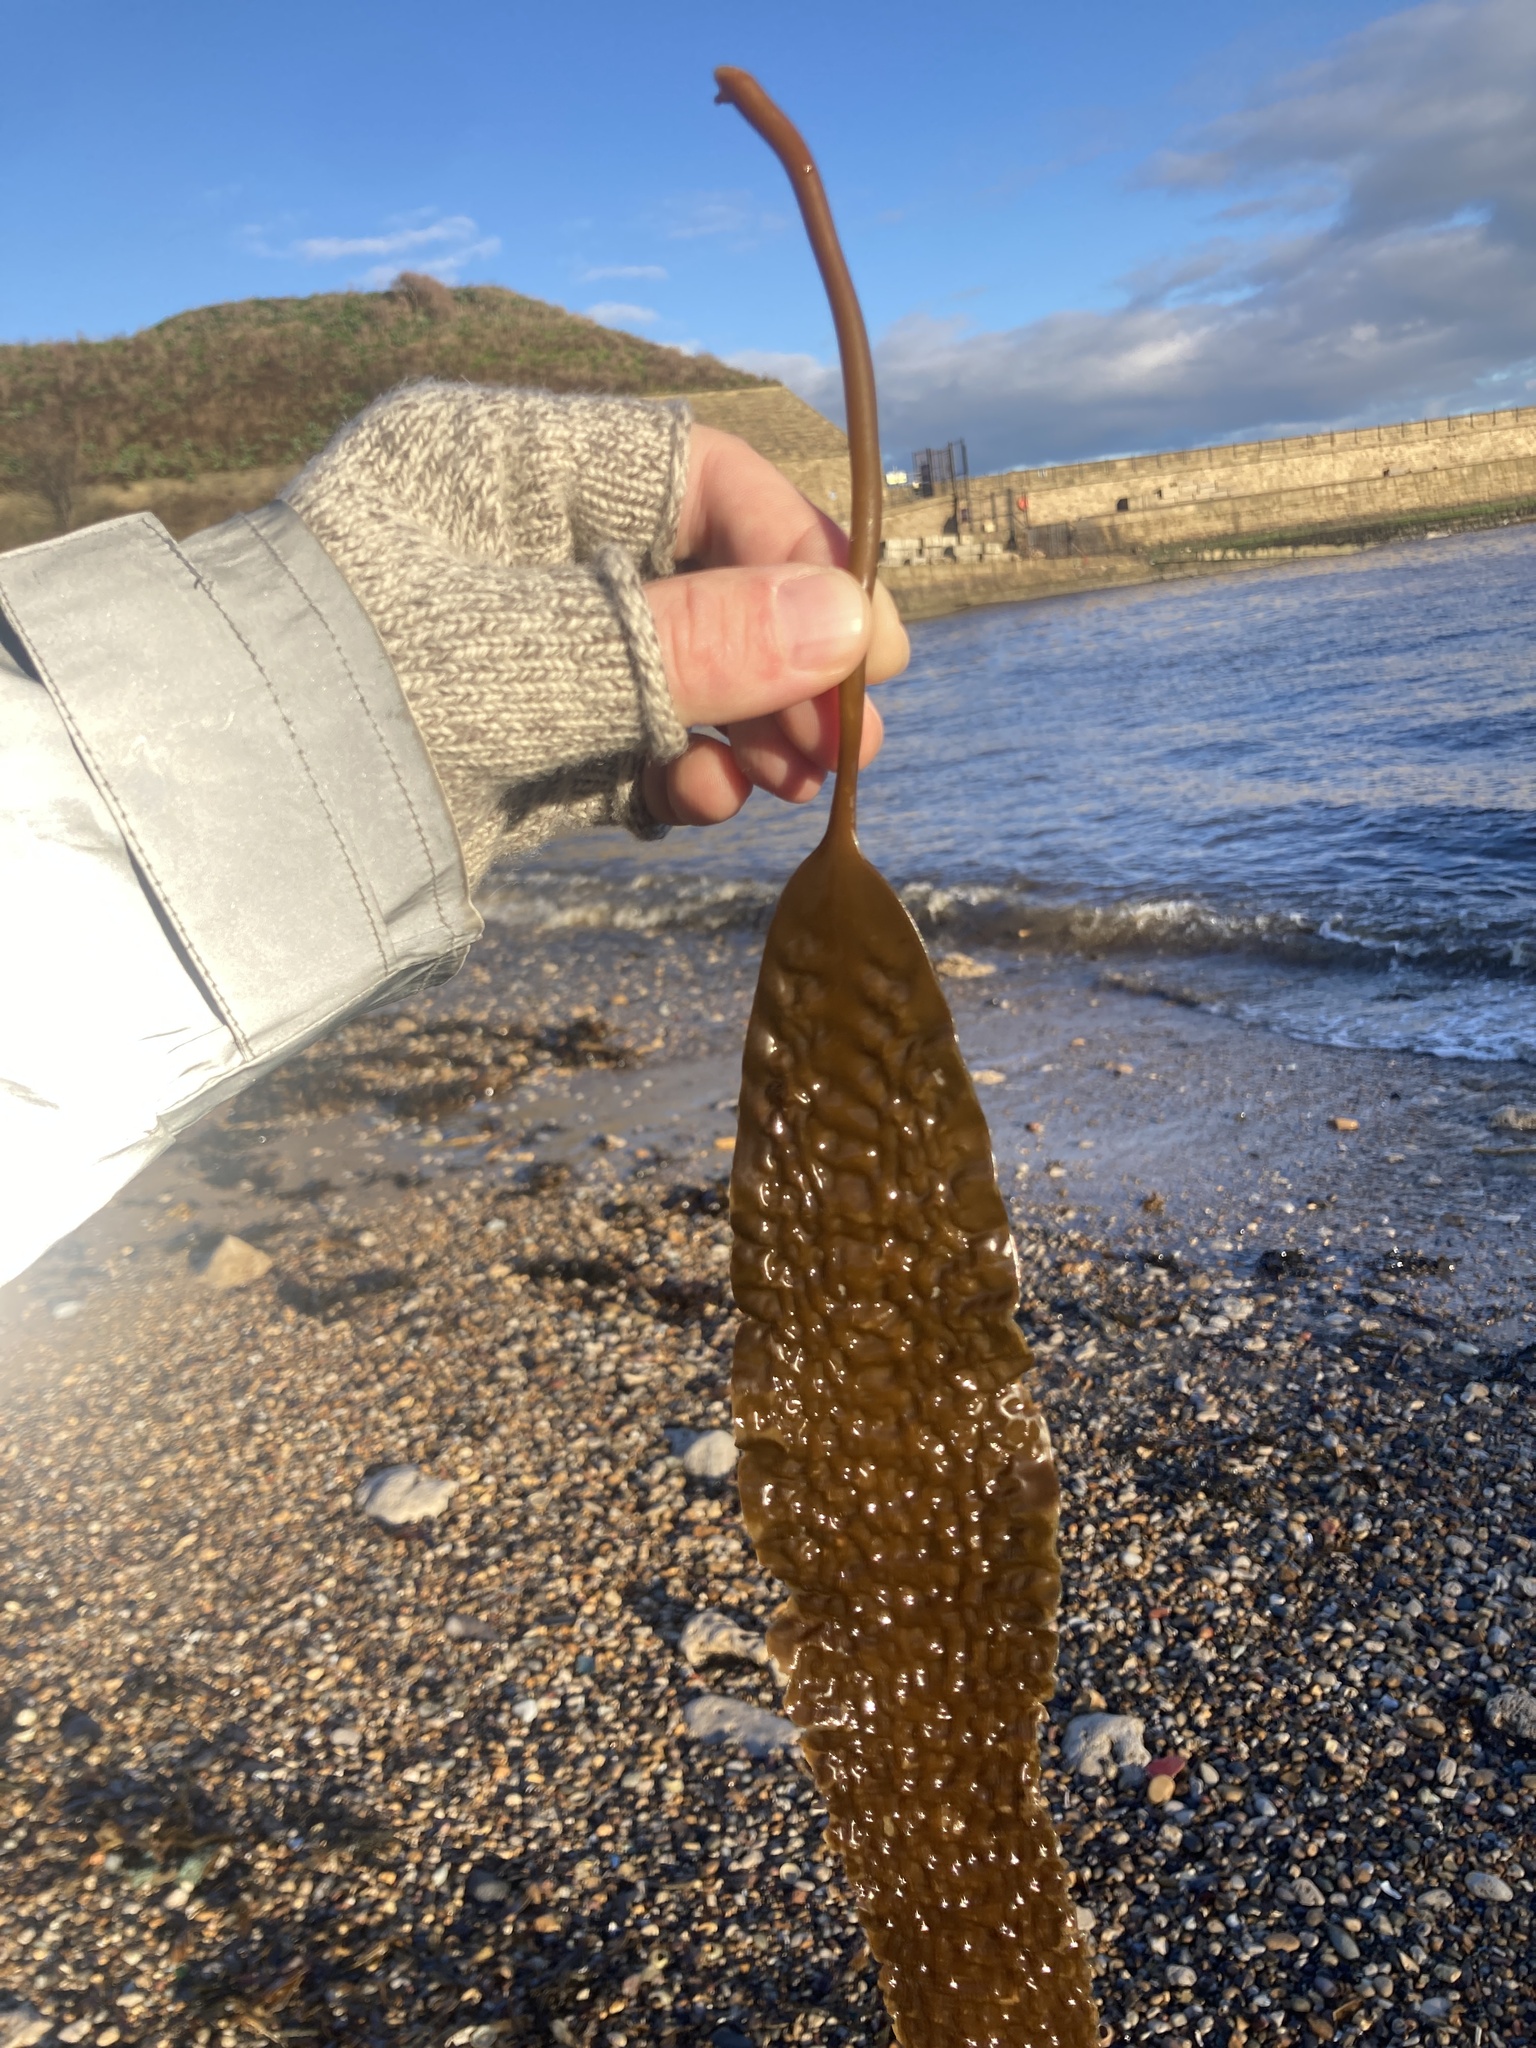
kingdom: Chromista
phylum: Ochrophyta
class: Phaeophyceae
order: Laminariales
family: Laminariaceae
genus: Saccharina
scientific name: Saccharina latissima
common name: Poor man's weather glass
